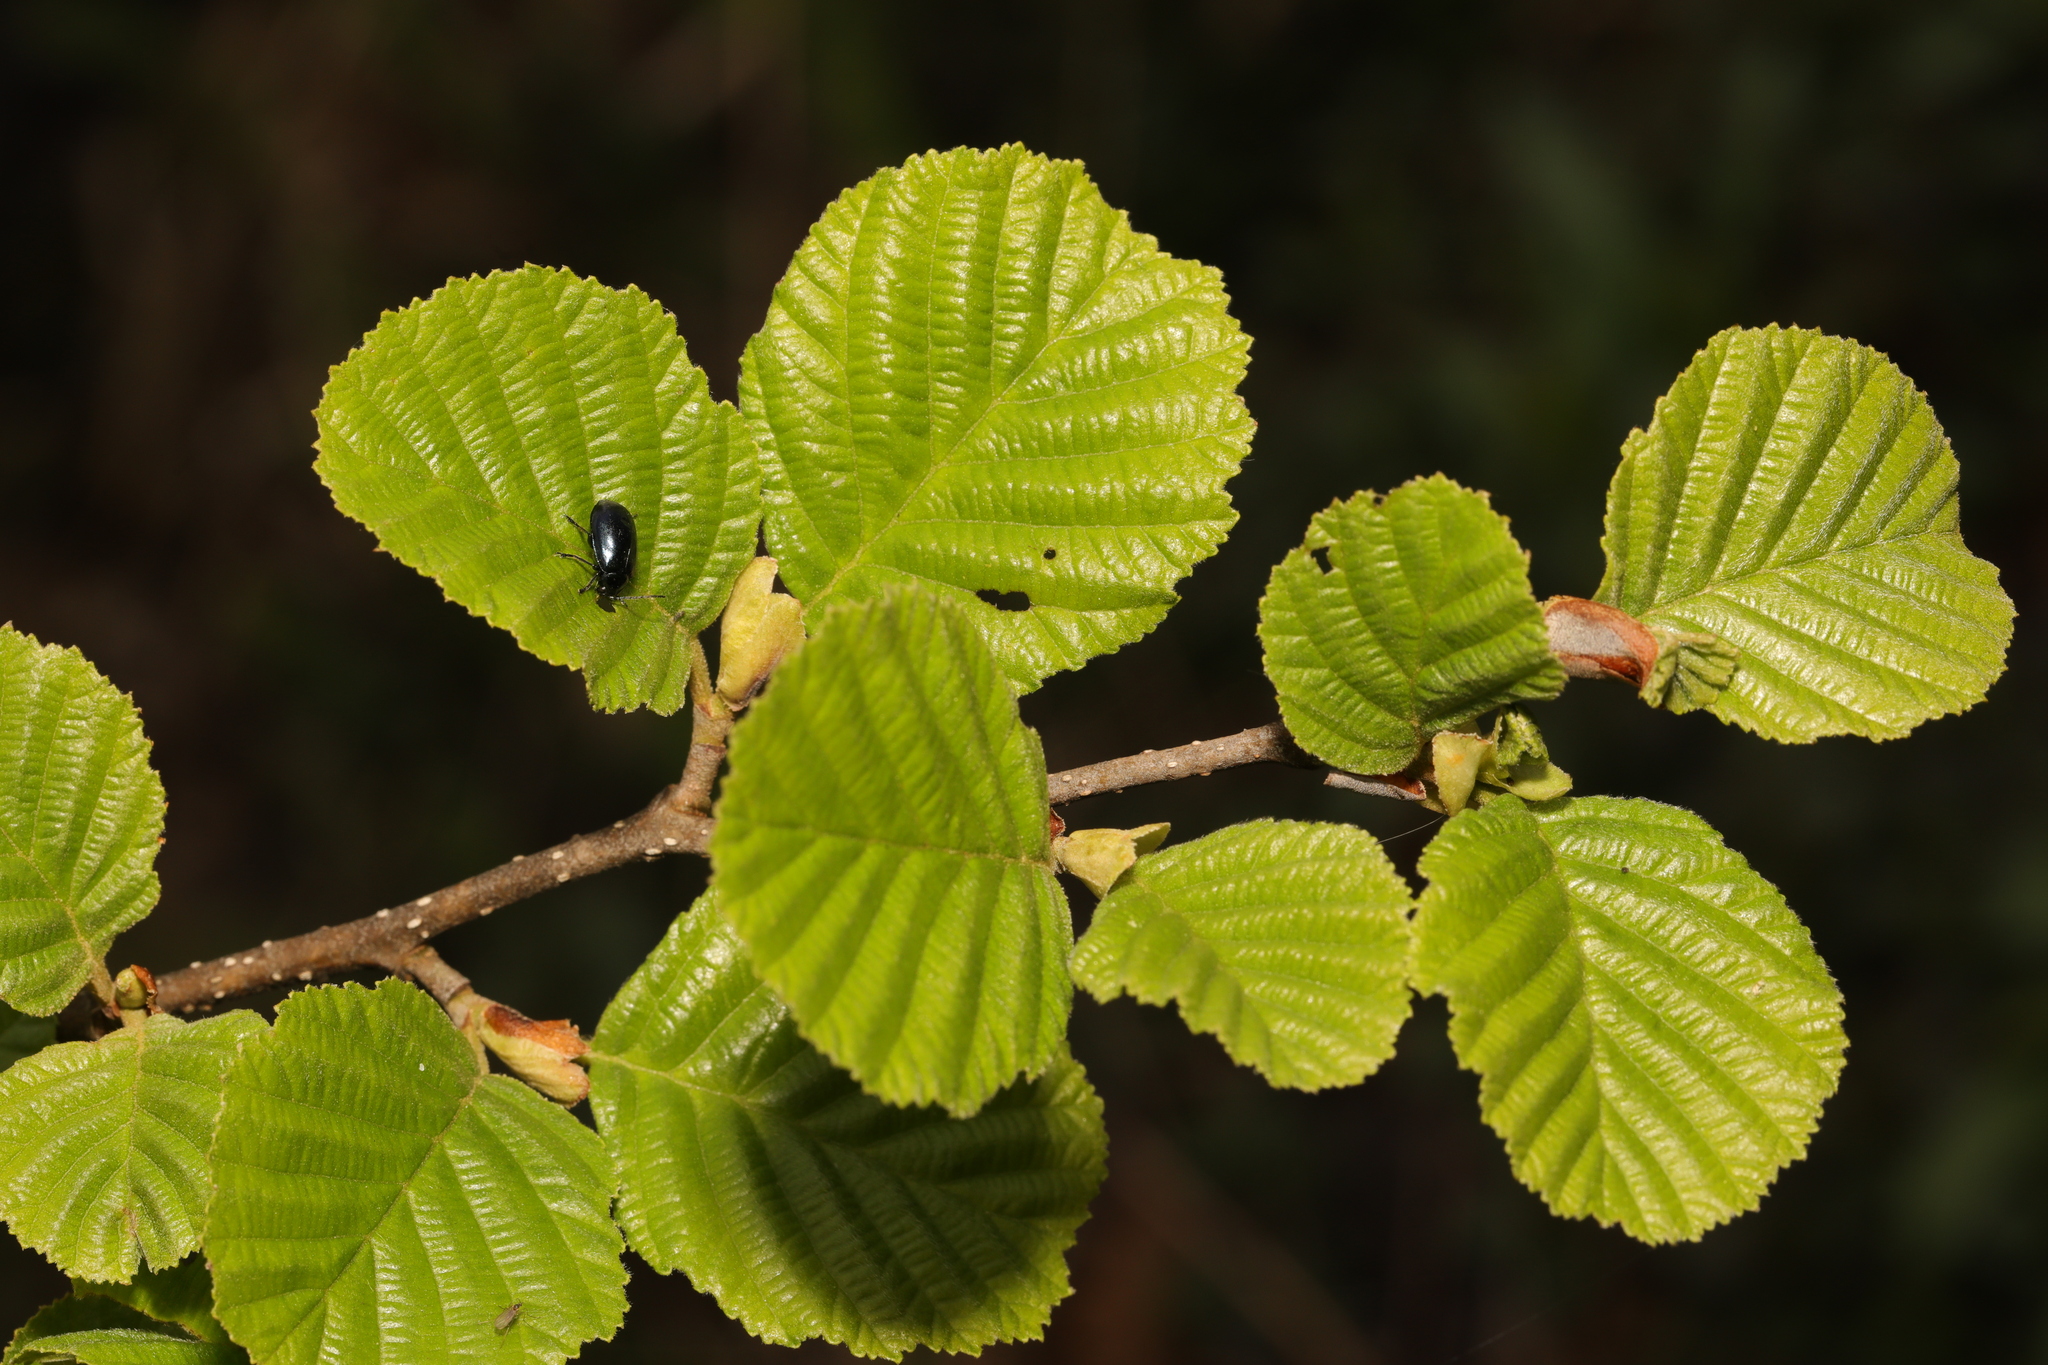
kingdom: Plantae
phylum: Tracheophyta
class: Magnoliopsida
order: Fagales
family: Betulaceae
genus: Alnus
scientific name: Alnus glutinosa
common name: Black alder
